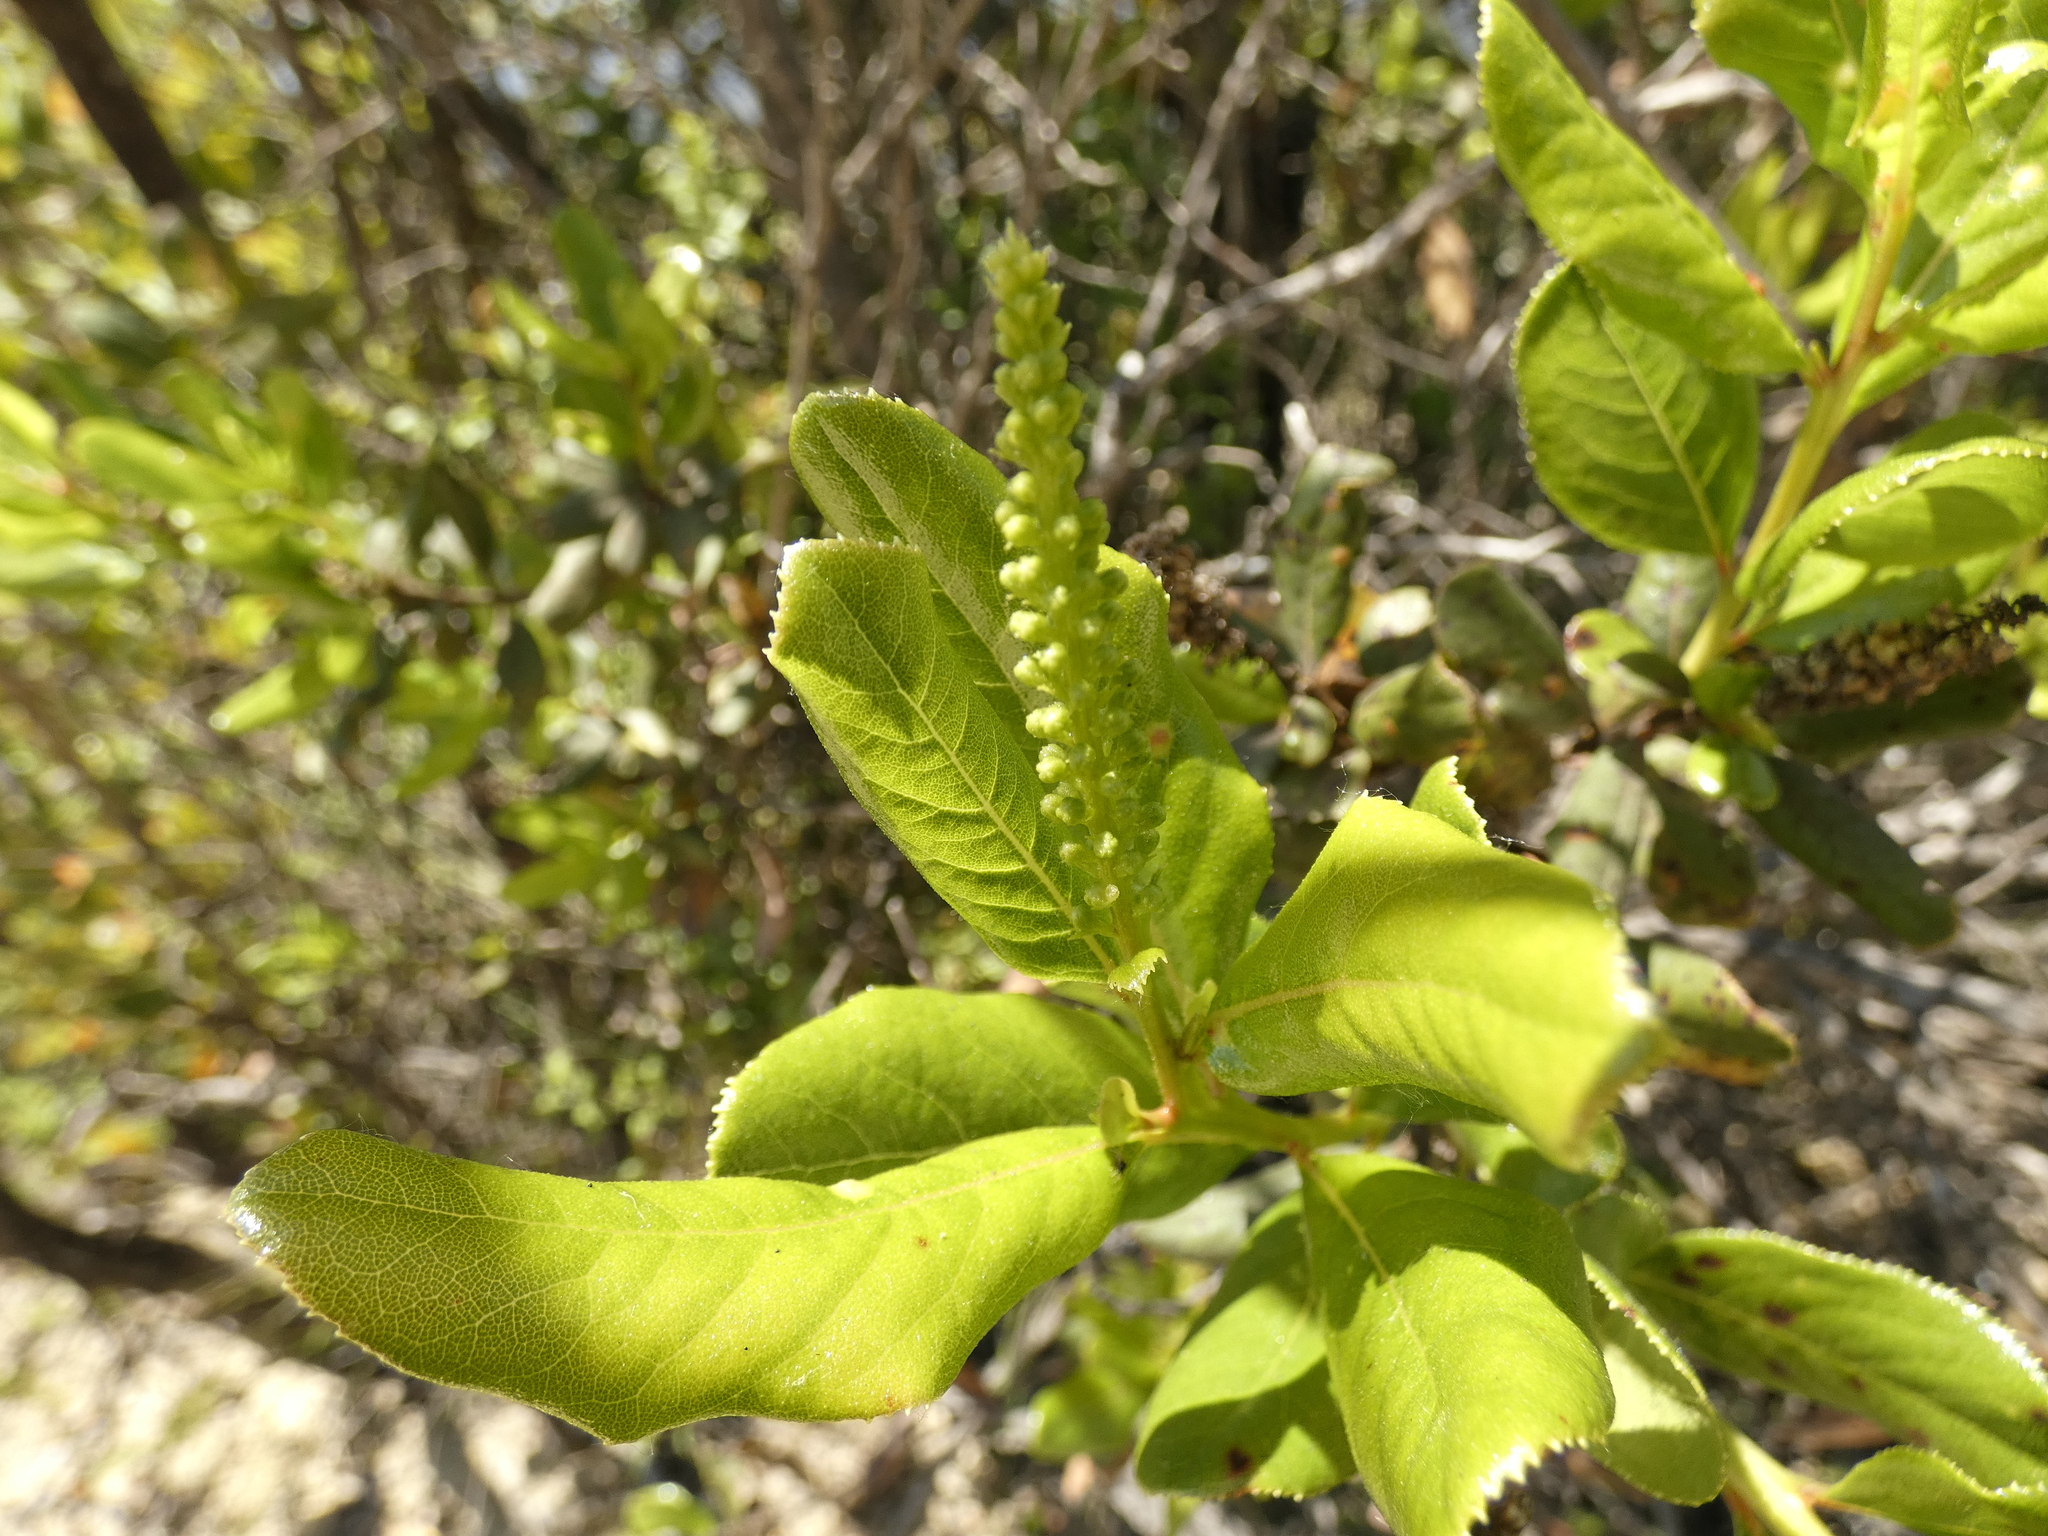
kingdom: Plantae
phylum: Tracheophyta
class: Magnoliopsida
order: Escalloniales
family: Escalloniaceae
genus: Escallonia
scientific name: Escallonia pulverulenta
